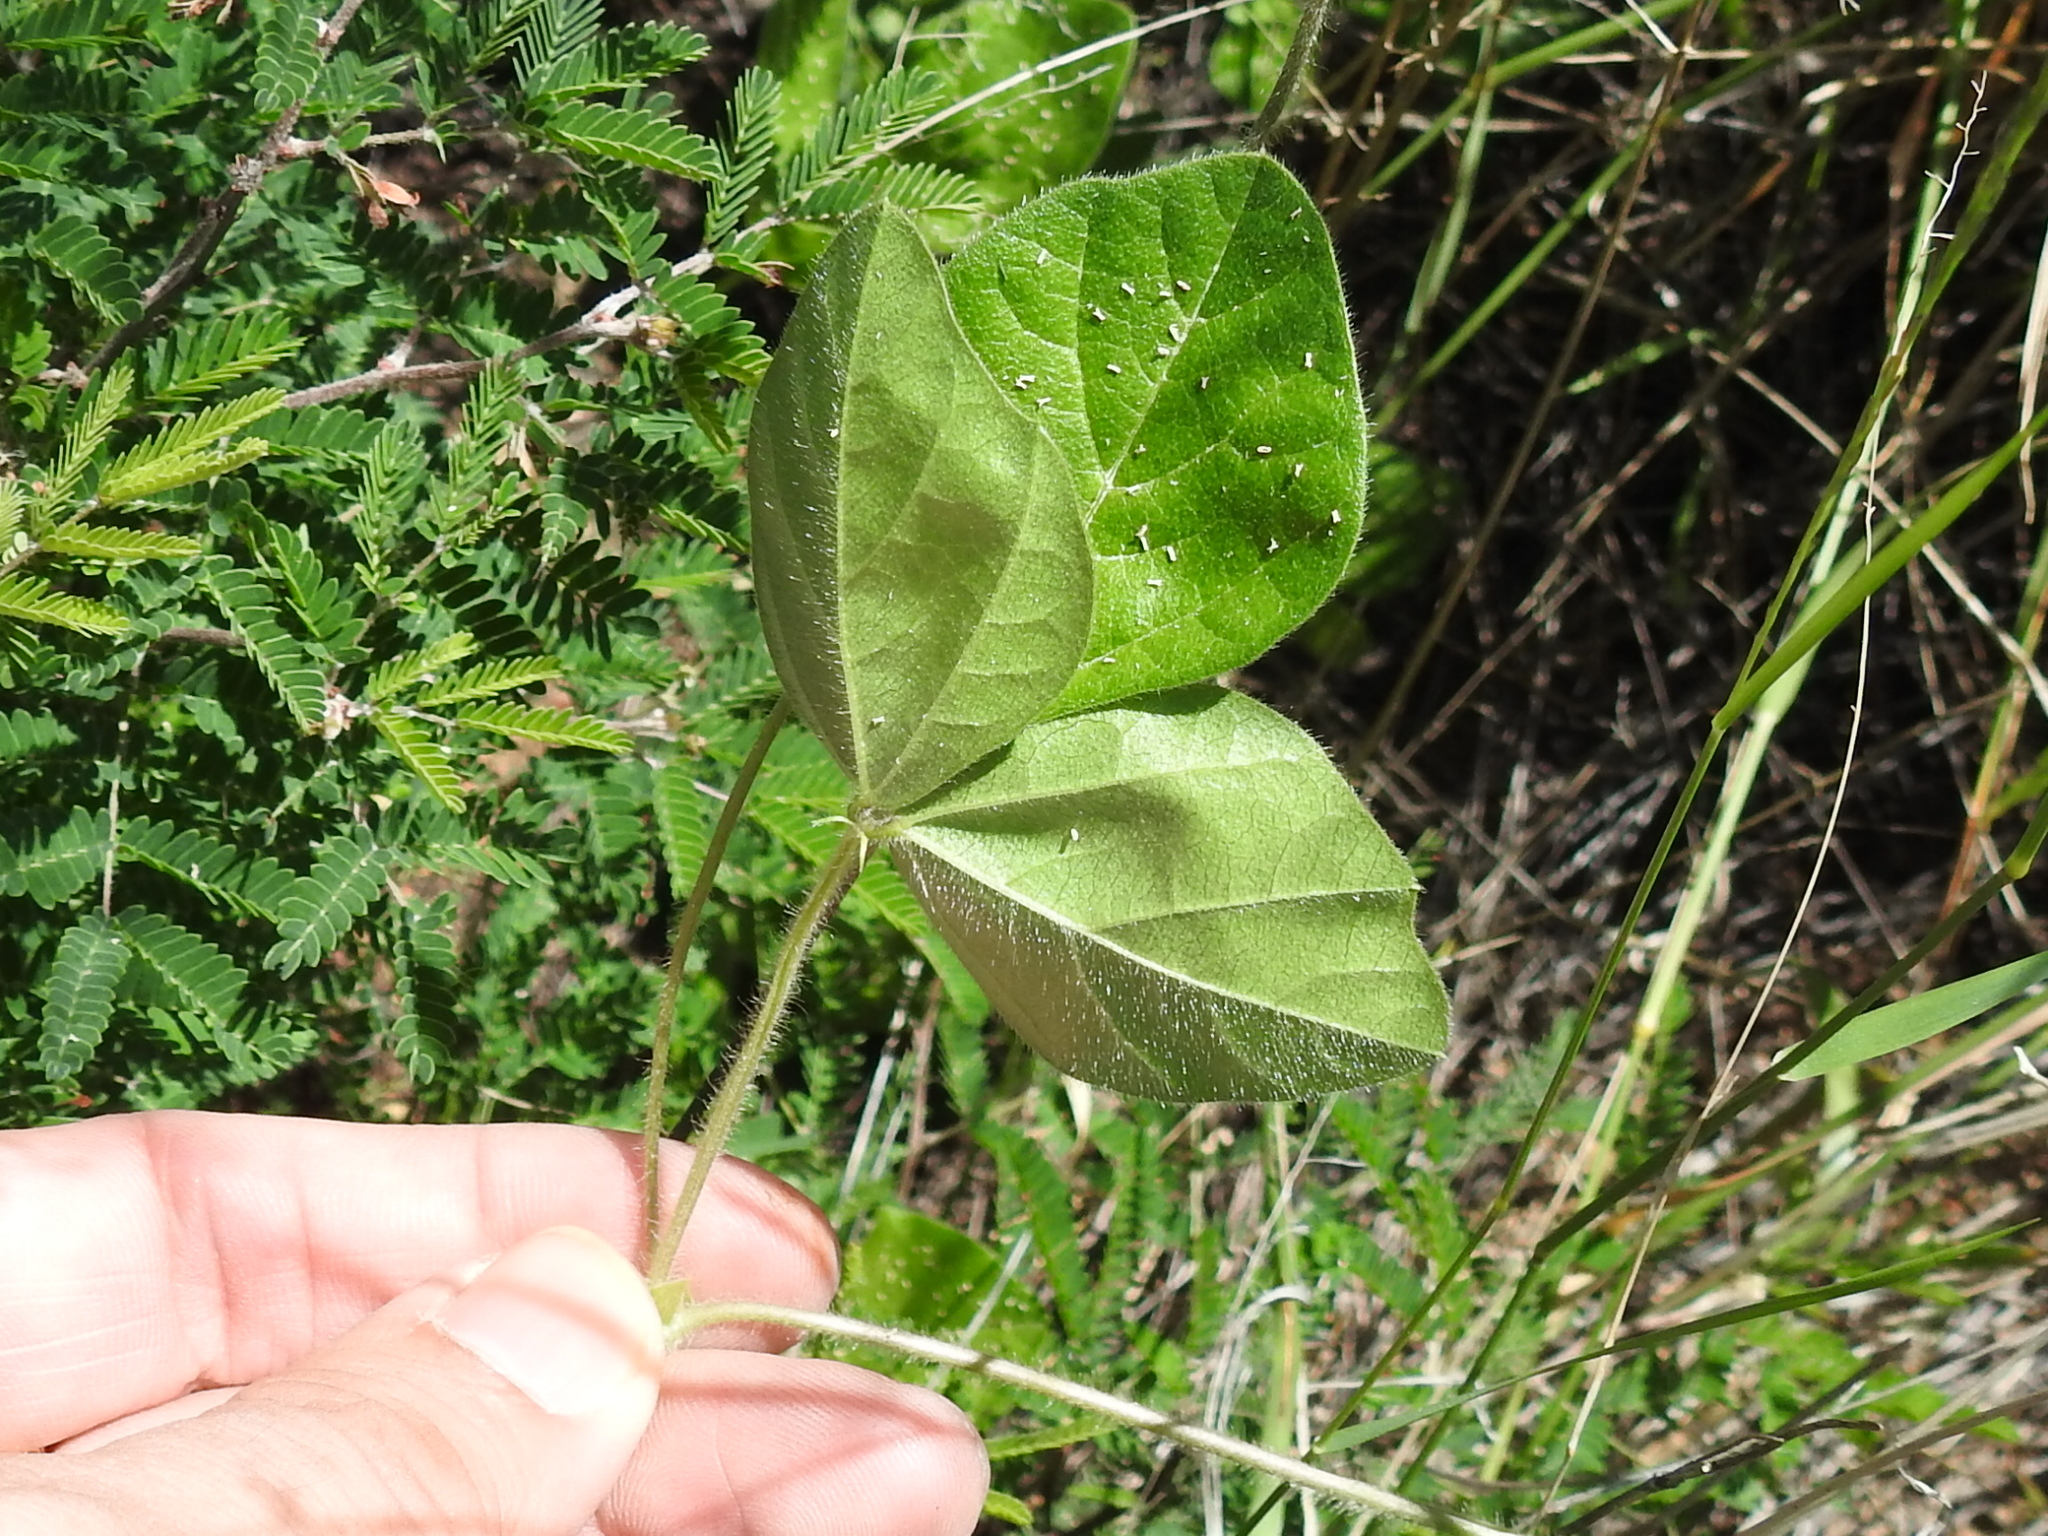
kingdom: Plantae
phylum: Tracheophyta
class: Magnoliopsida
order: Fabales
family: Fabaceae
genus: Macroptilium
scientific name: Macroptilium gibbosifolium
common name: Variableleaf bushbean
